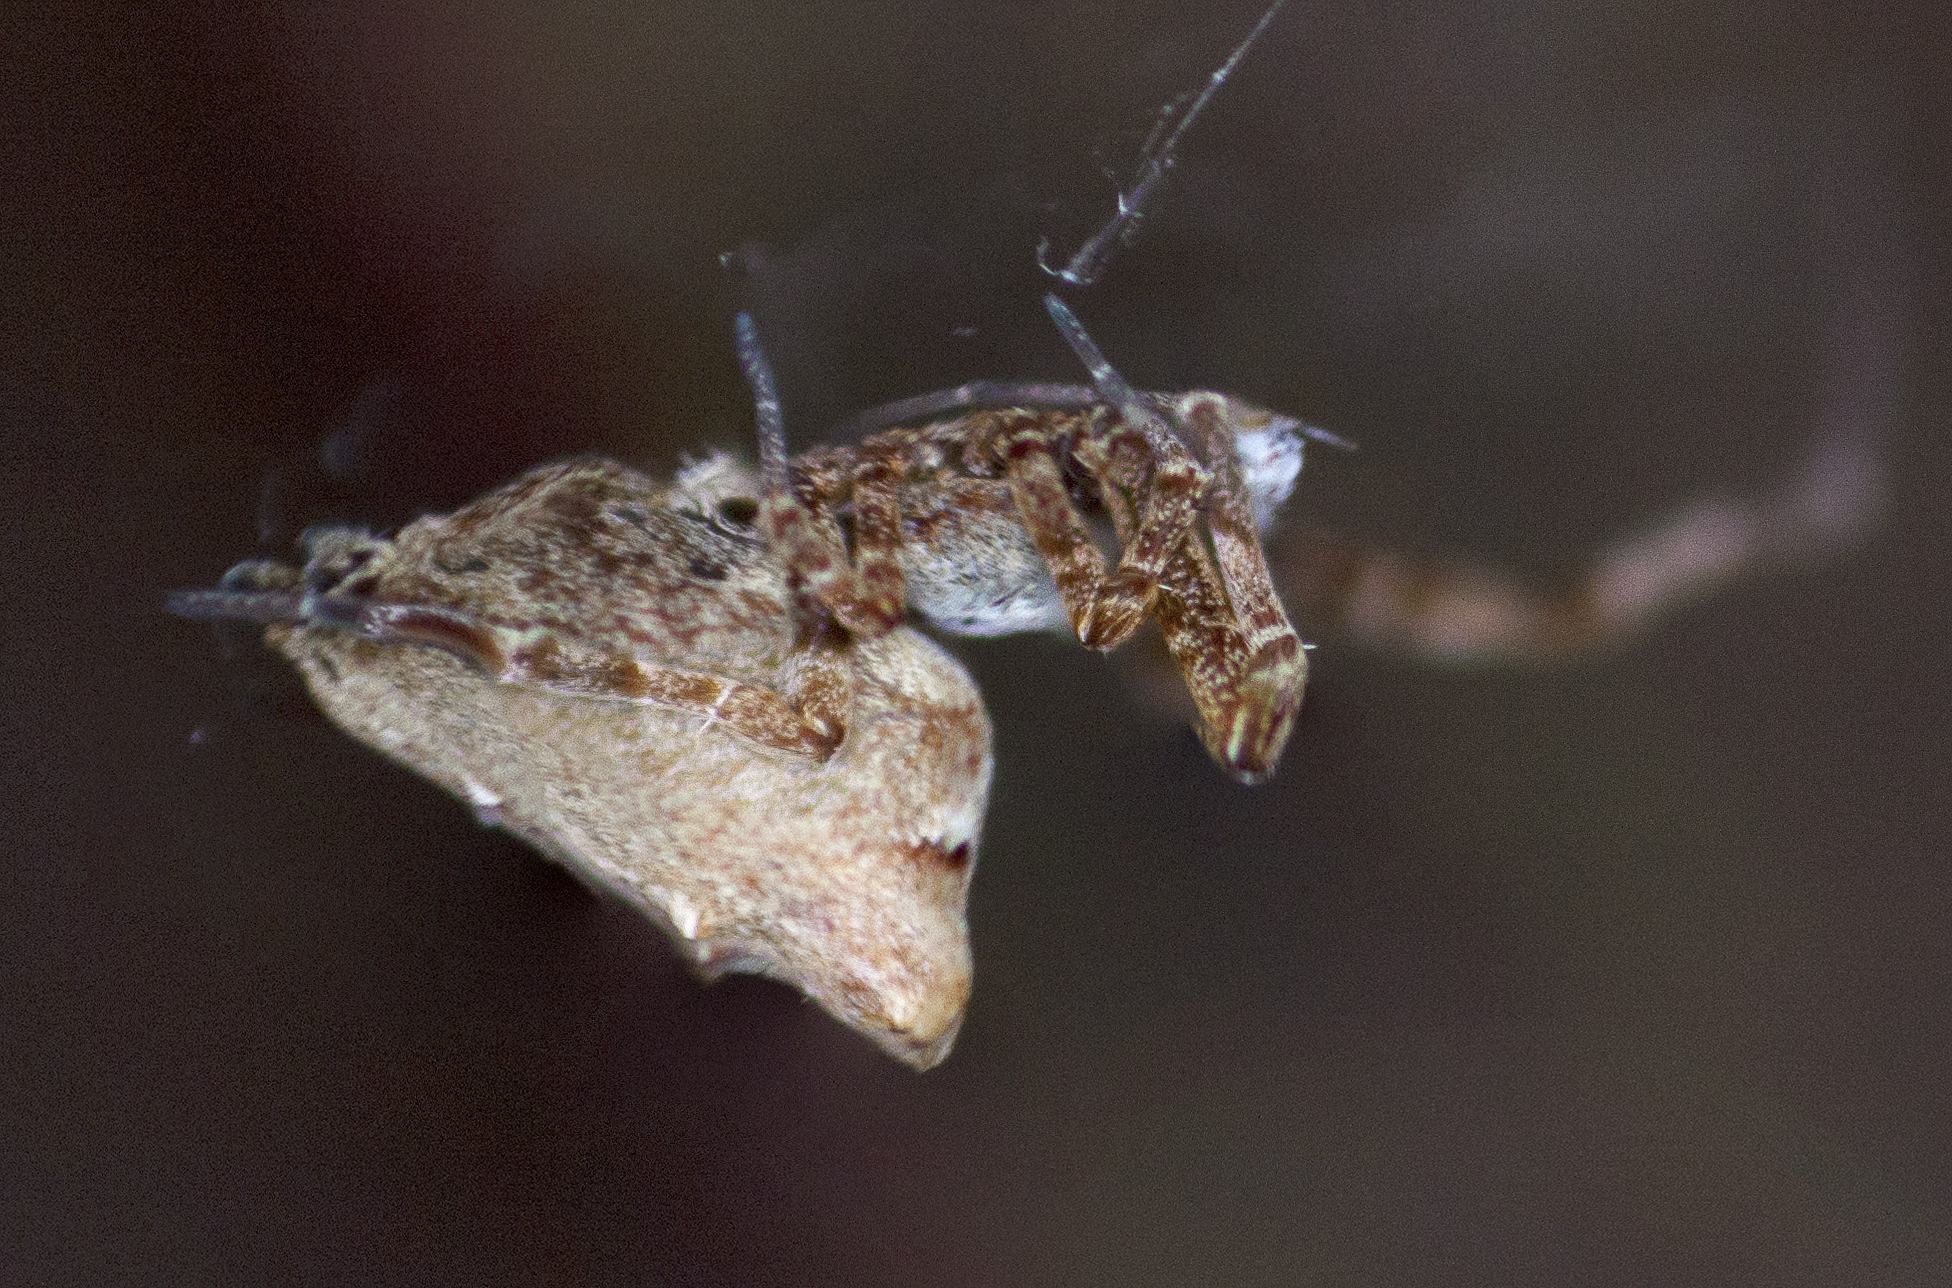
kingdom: Animalia
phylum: Arthropoda
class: Arachnida
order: Araneae
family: Uloboridae
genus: Philoponella
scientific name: Philoponella congregabilis
